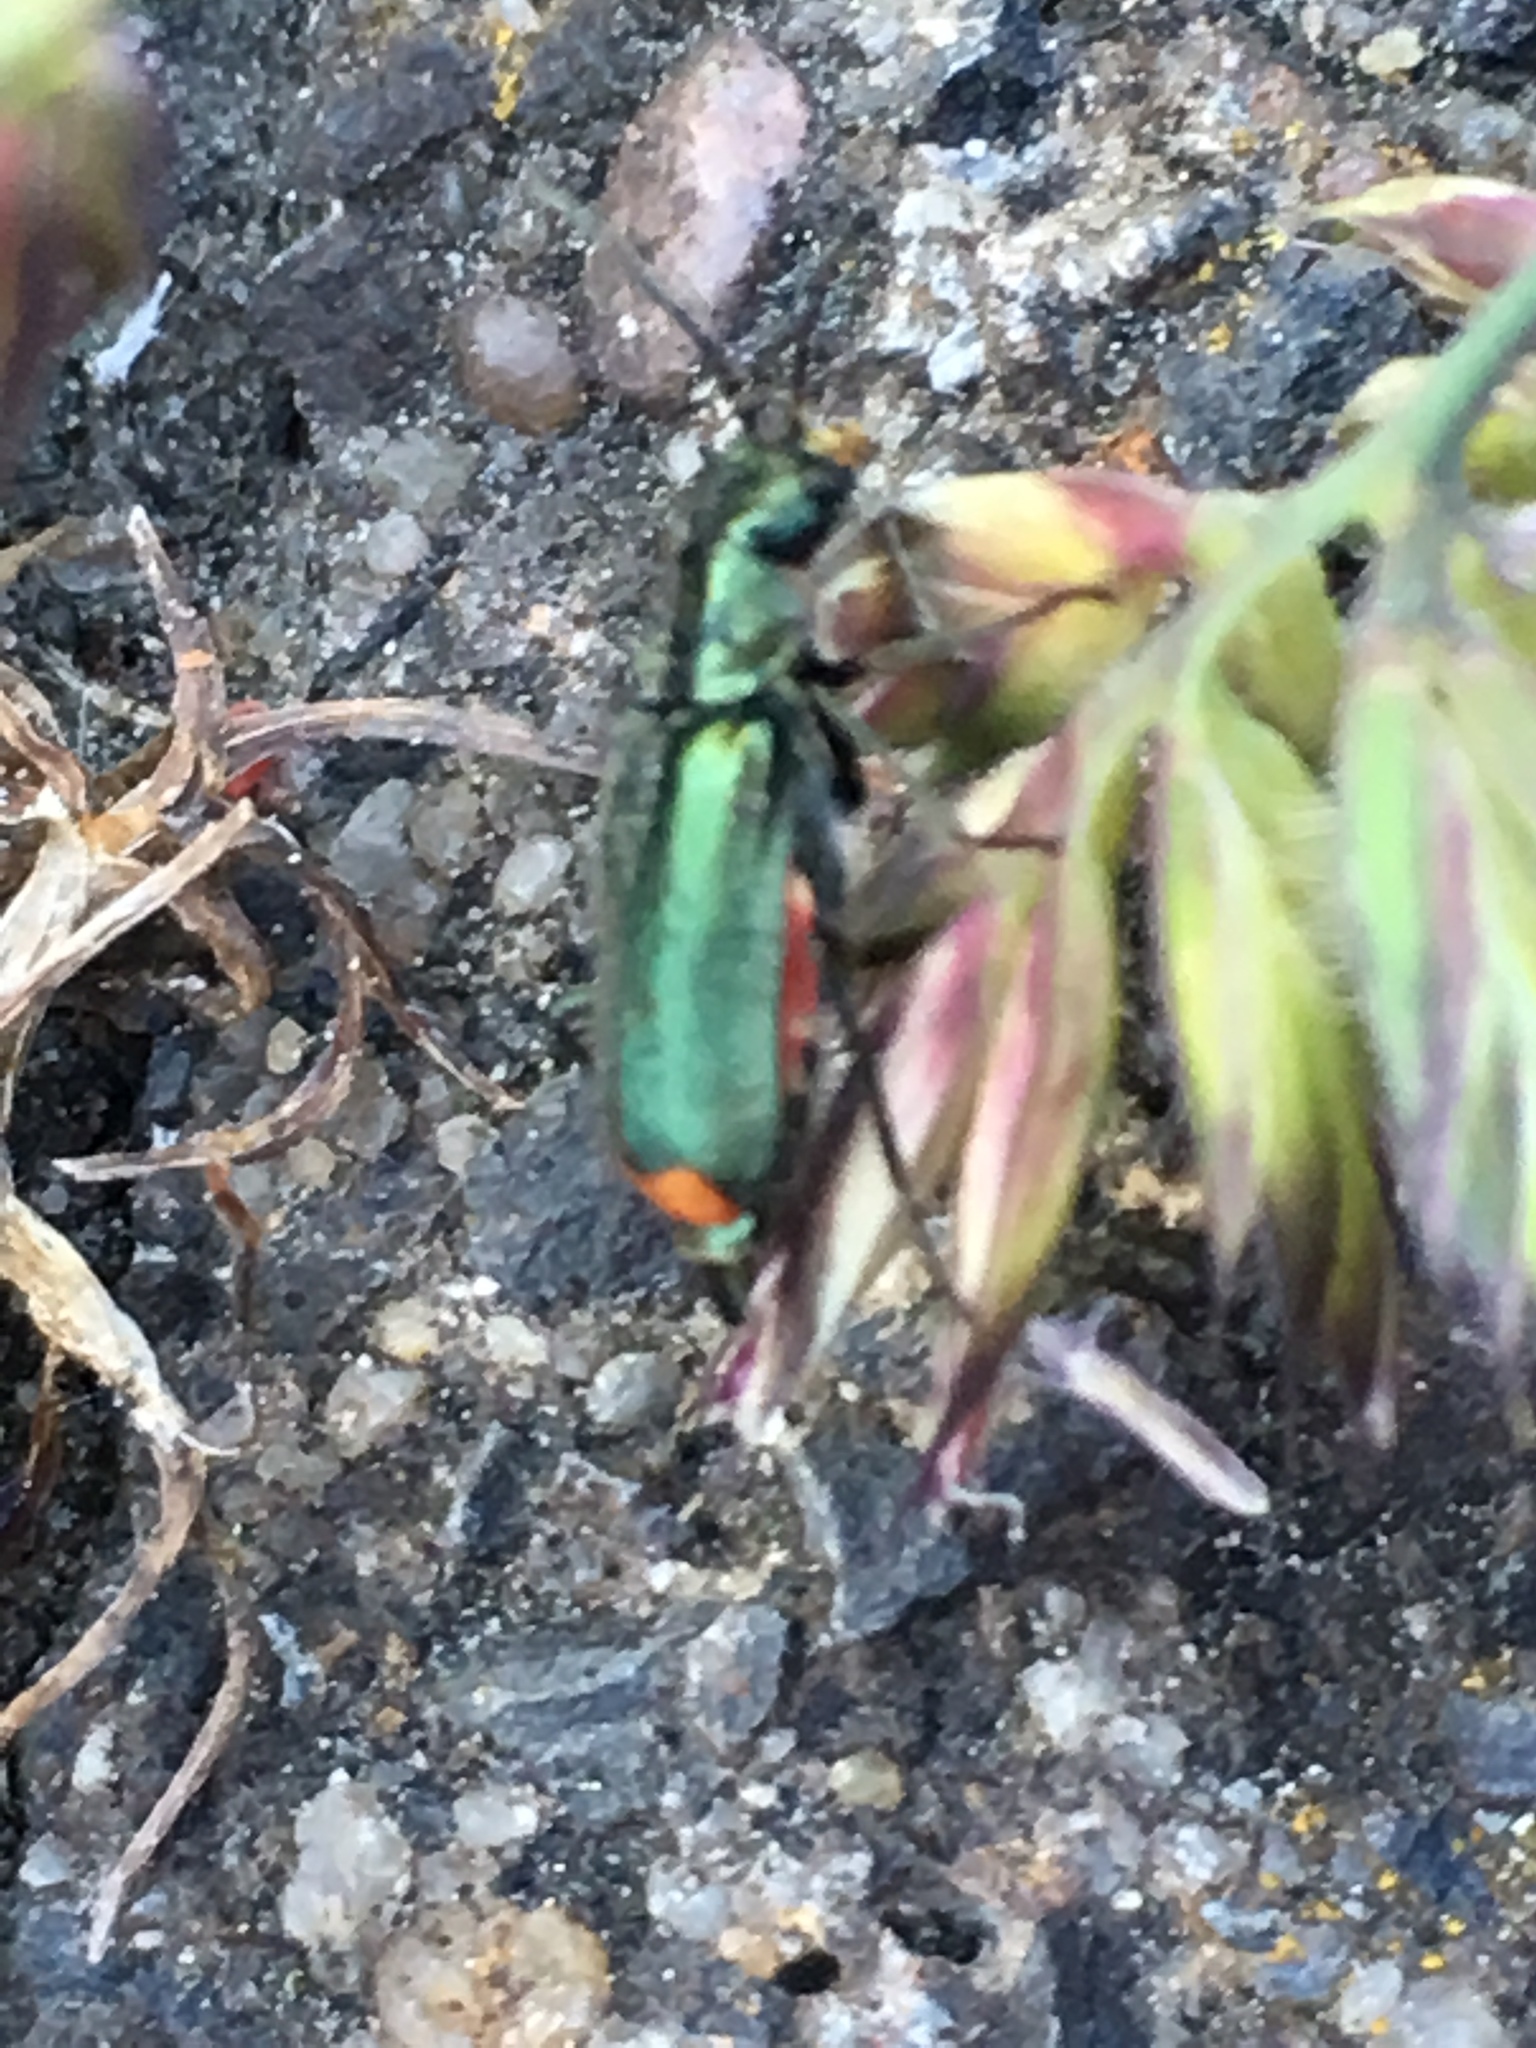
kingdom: Animalia
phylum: Arthropoda
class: Insecta
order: Coleoptera
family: Melyridae
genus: Malachius
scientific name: Malachius bipustulatus
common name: Malachite beetle
